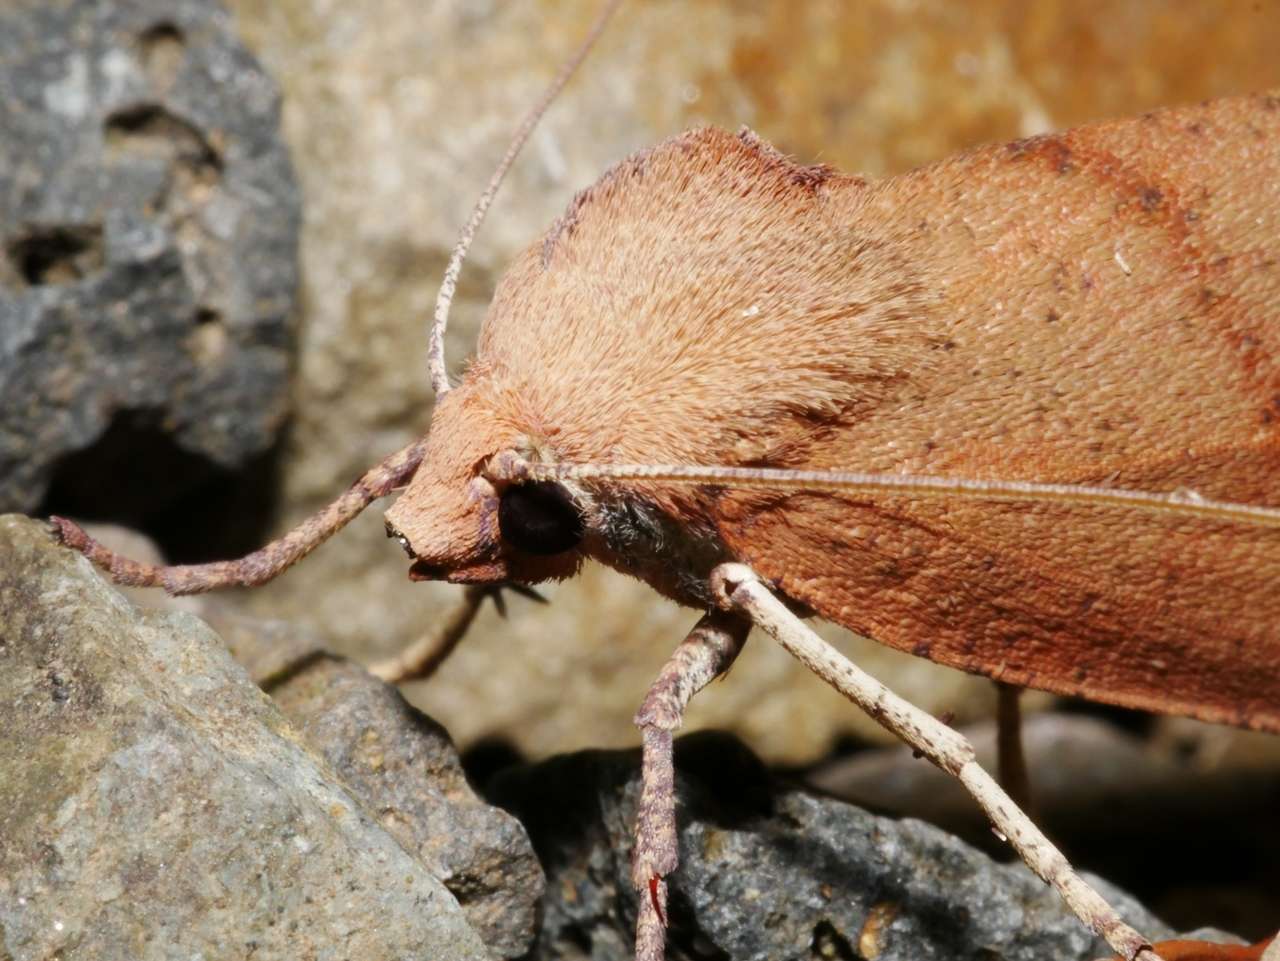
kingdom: Animalia
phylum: Arthropoda
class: Insecta
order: Lepidoptera
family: Geometridae
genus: Fisera
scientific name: Fisera hypoleuca
